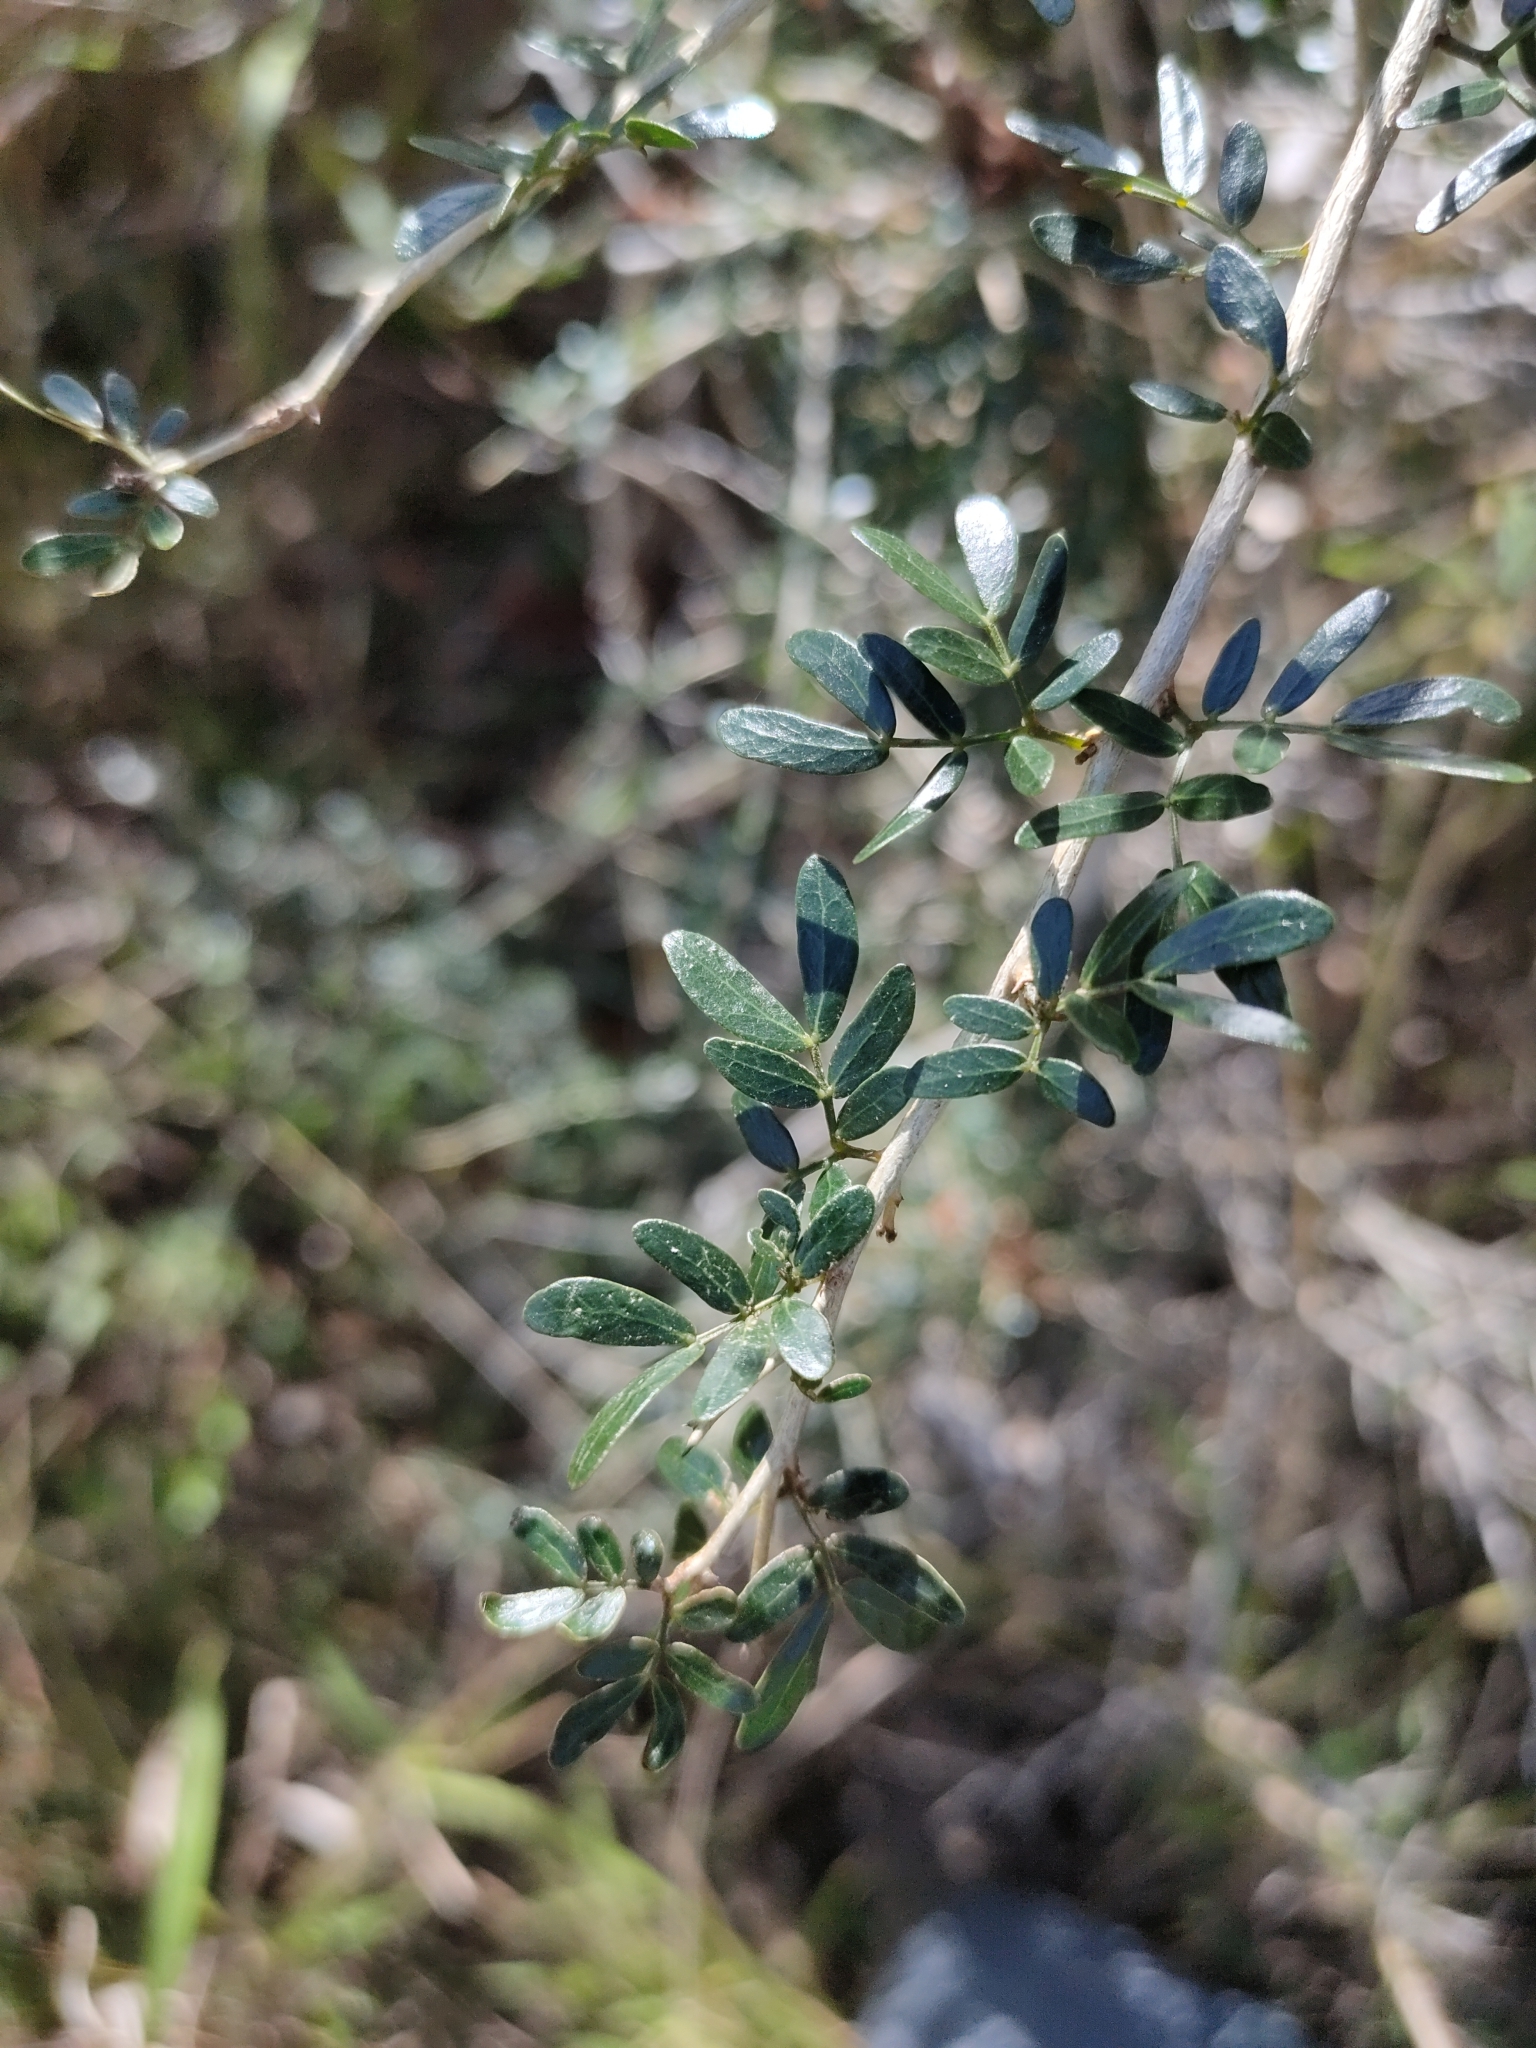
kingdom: Plantae
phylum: Tracheophyta
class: Magnoliopsida
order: Fabales
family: Fabaceae
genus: Archidendropsis
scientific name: Archidendropsis thozetiana
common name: Scrub teatree
